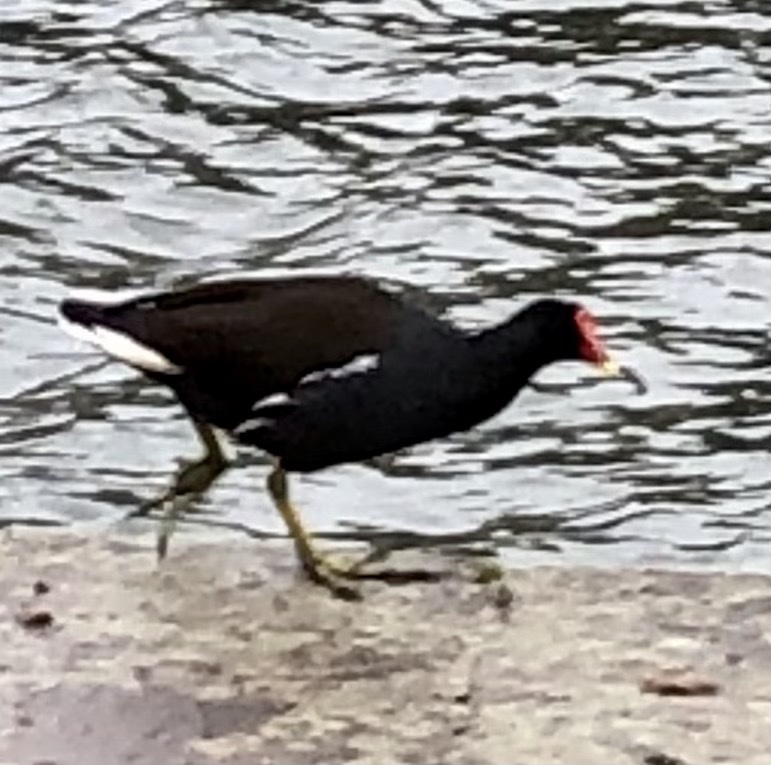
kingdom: Animalia
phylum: Chordata
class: Aves
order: Gruiformes
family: Rallidae
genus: Gallinula
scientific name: Gallinula chloropus
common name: Common moorhen
